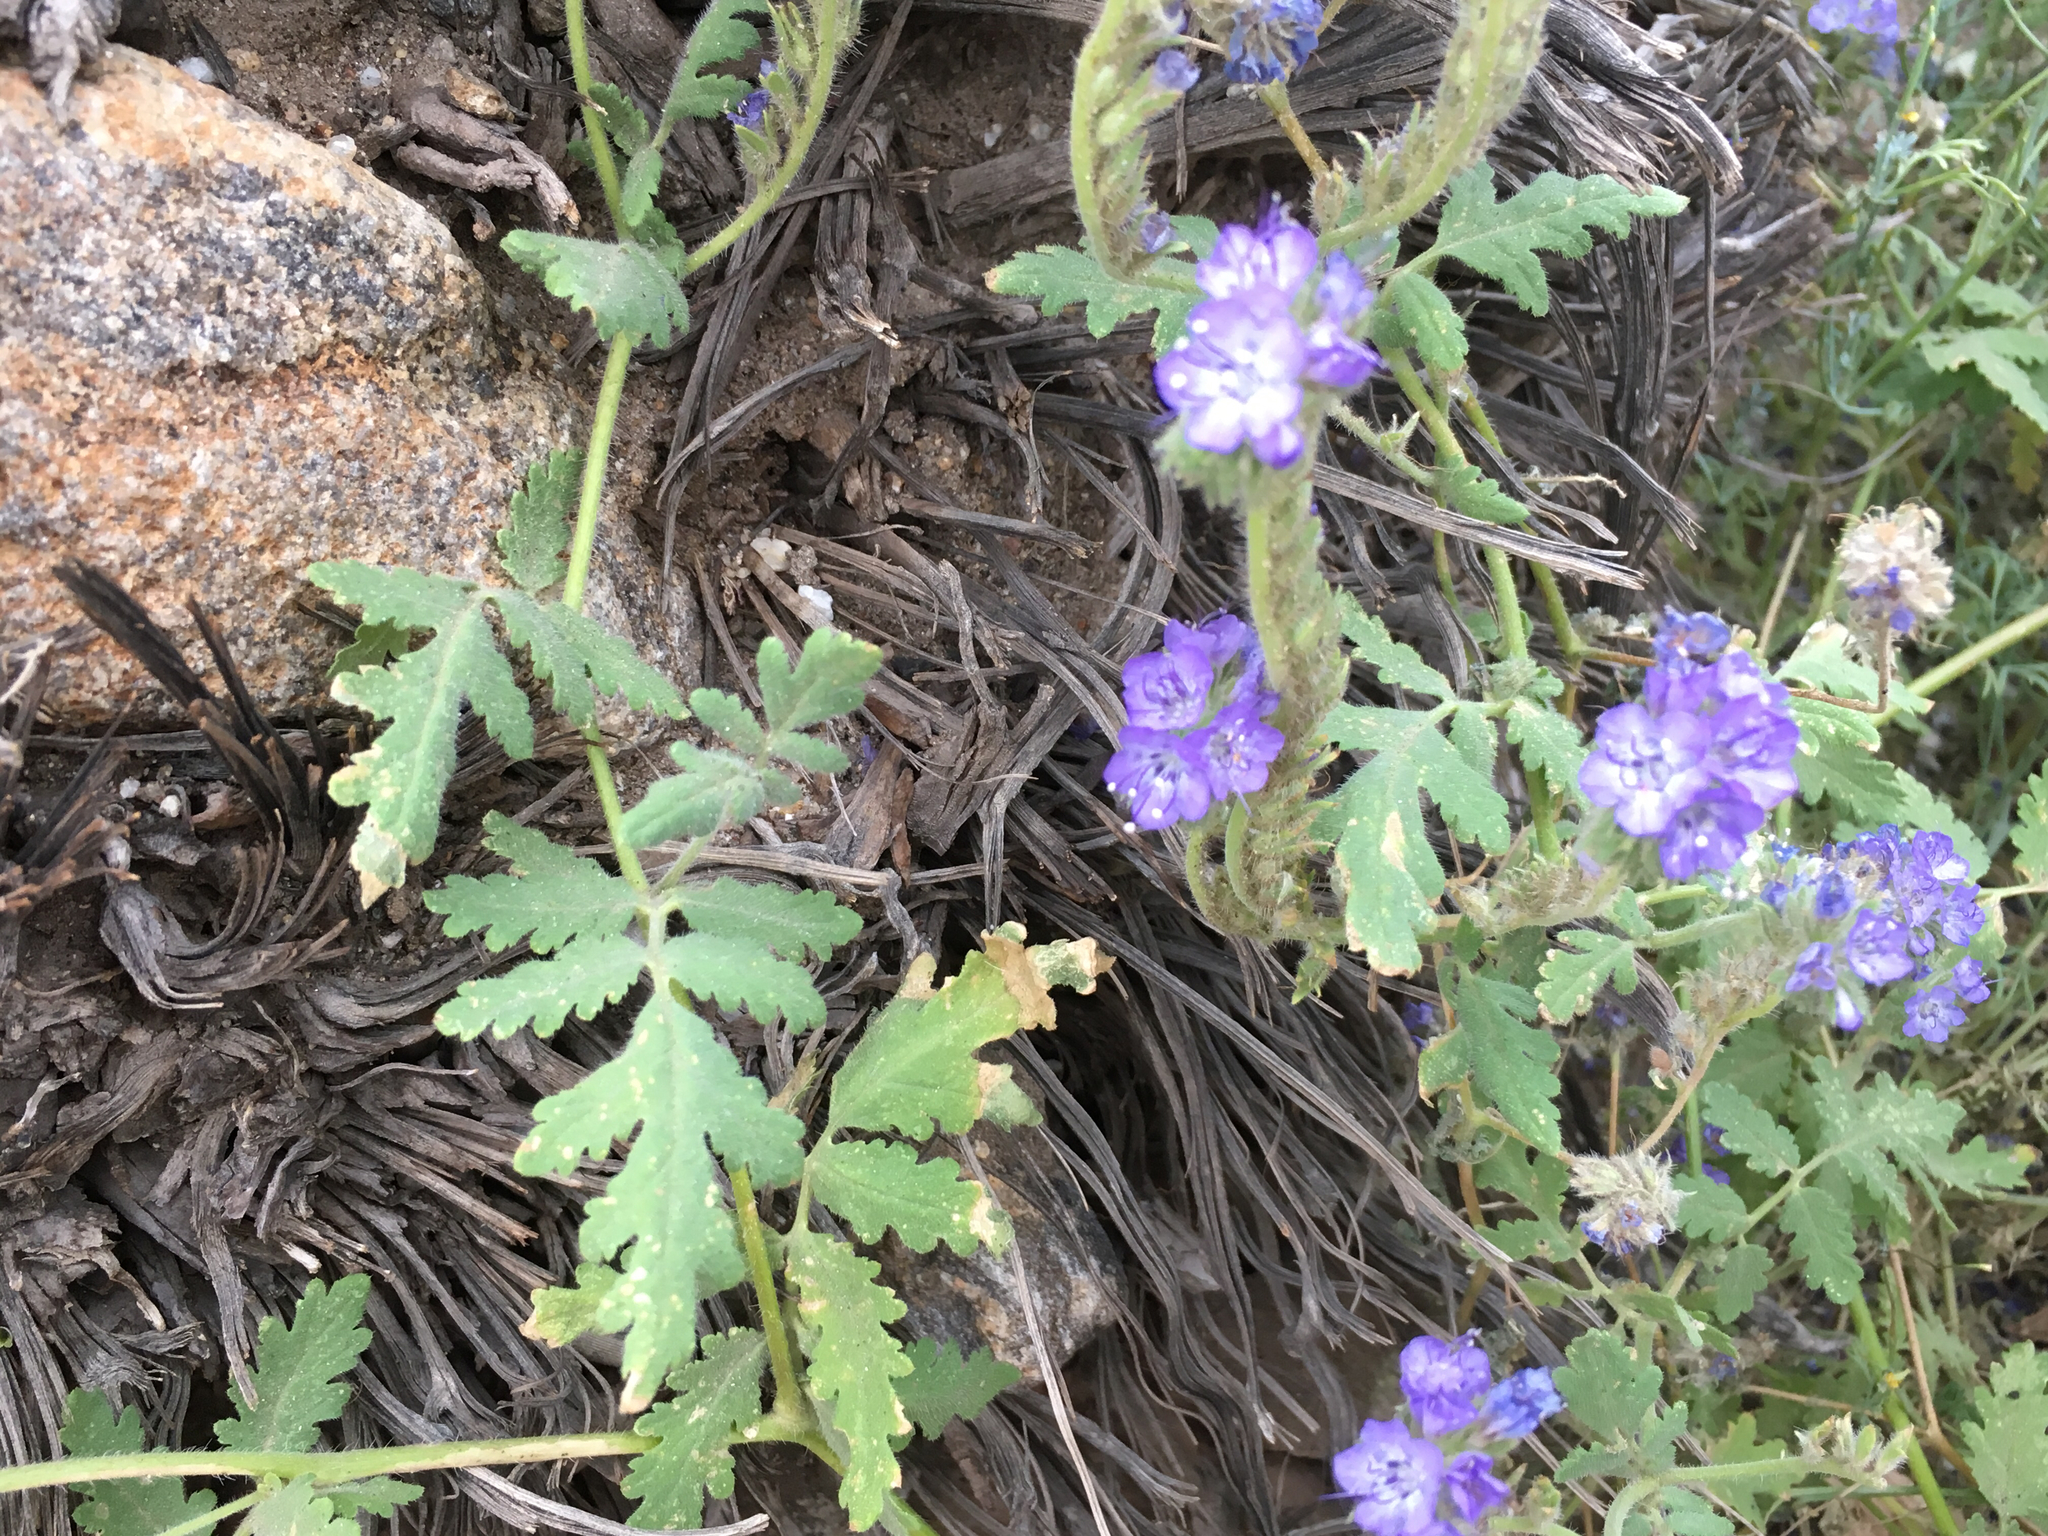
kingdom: Plantae
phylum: Tracheophyta
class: Magnoliopsida
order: Boraginales
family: Hydrophyllaceae
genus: Phacelia
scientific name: Phacelia distans
